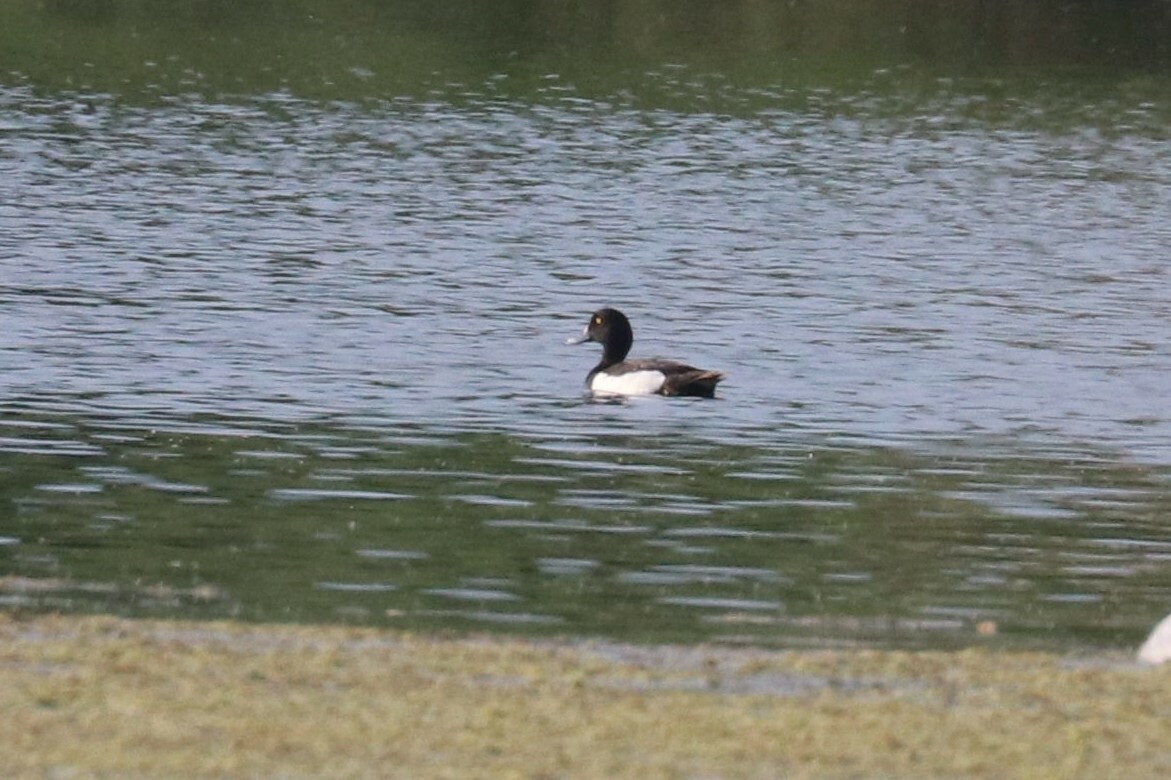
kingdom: Animalia
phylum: Chordata
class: Aves
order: Anseriformes
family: Anatidae
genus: Aythya
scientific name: Aythya fuligula
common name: Tufted duck
